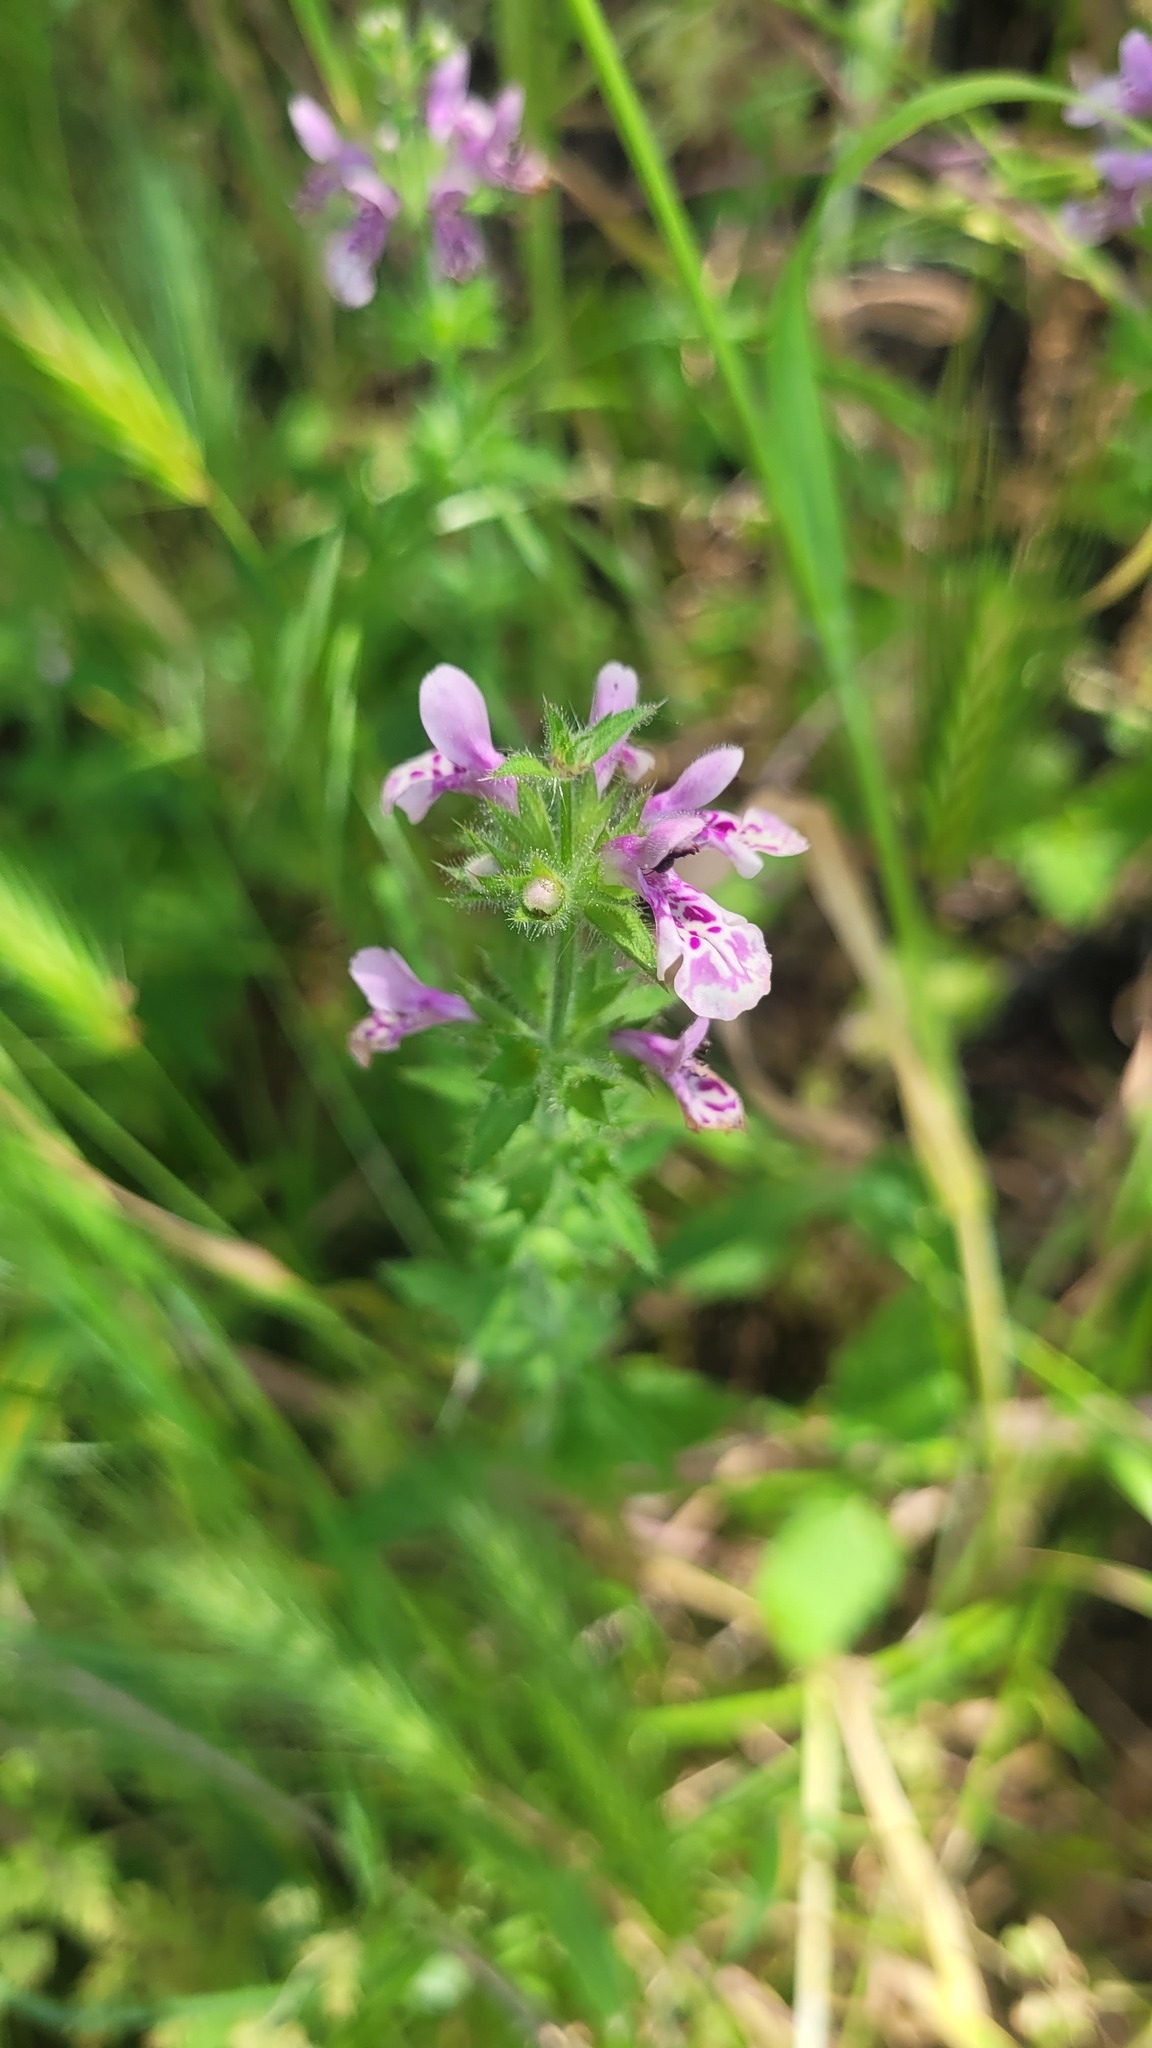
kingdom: Plantae
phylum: Tracheophyta
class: Magnoliopsida
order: Lamiales
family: Lamiaceae
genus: Stachys
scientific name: Stachys grandidentata
